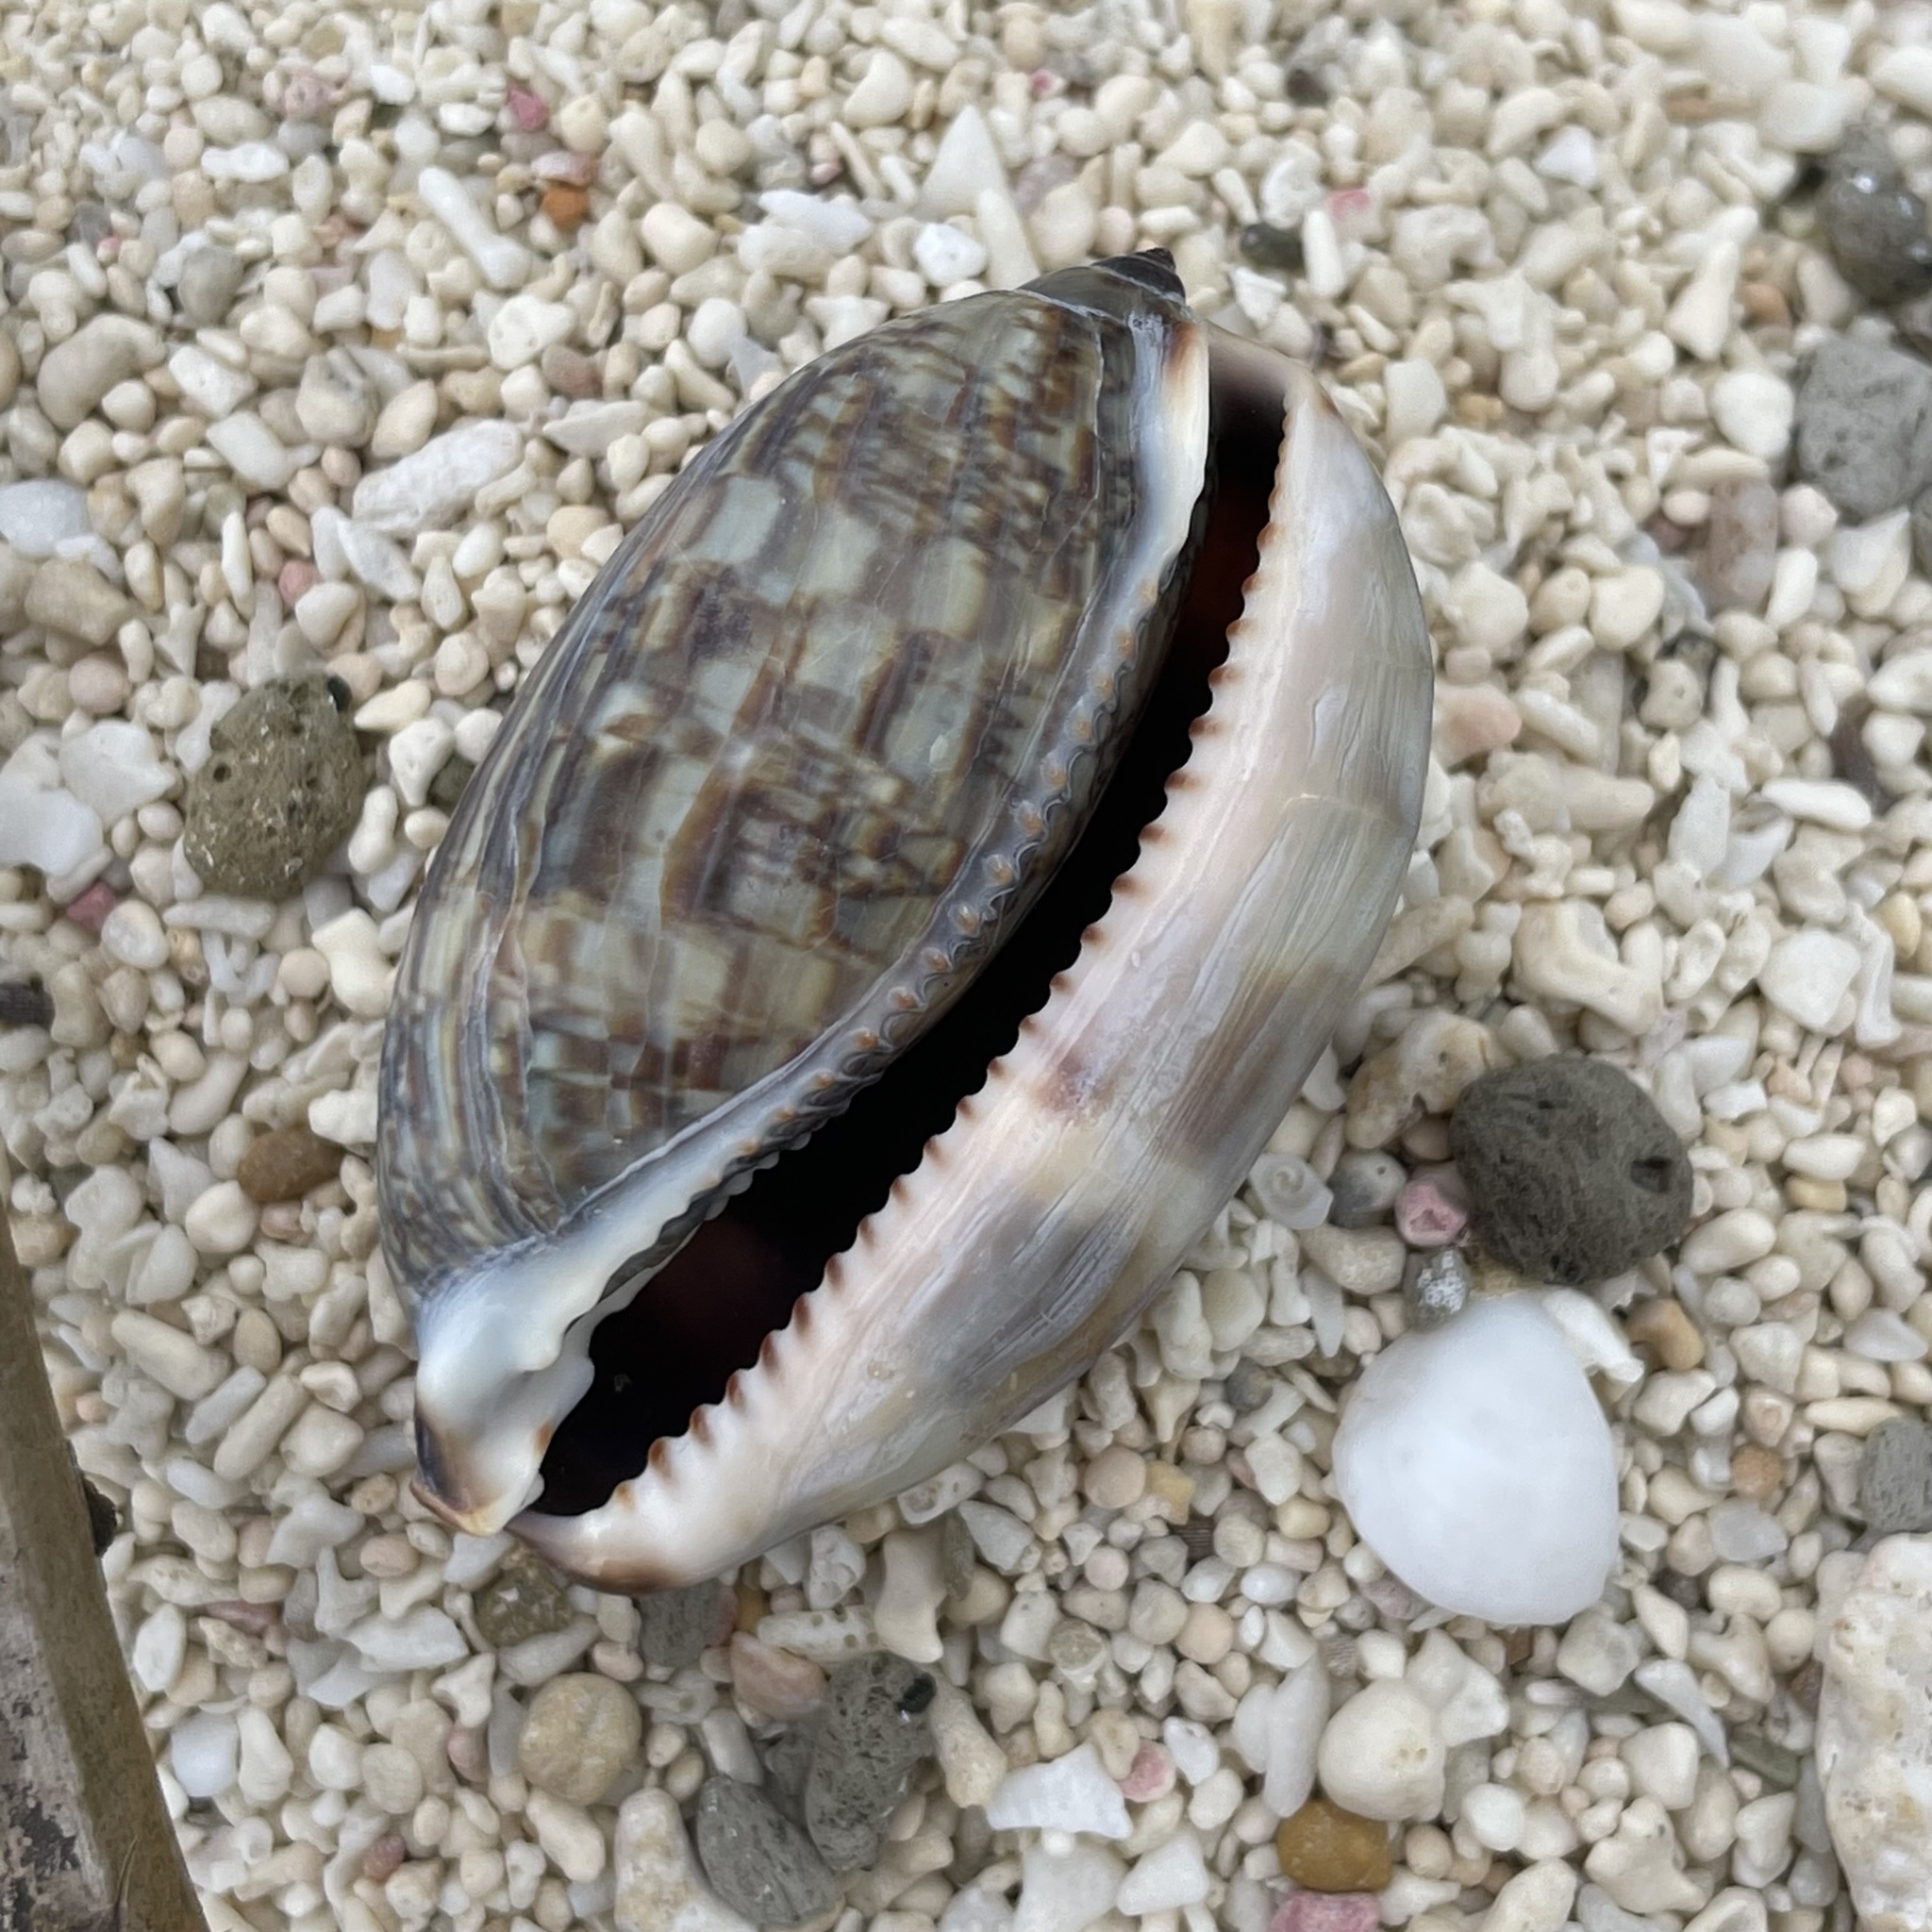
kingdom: Animalia
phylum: Mollusca
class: Gastropoda
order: Littorinimorpha
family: Cypraeidae
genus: Mauritia
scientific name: Mauritia arabica
